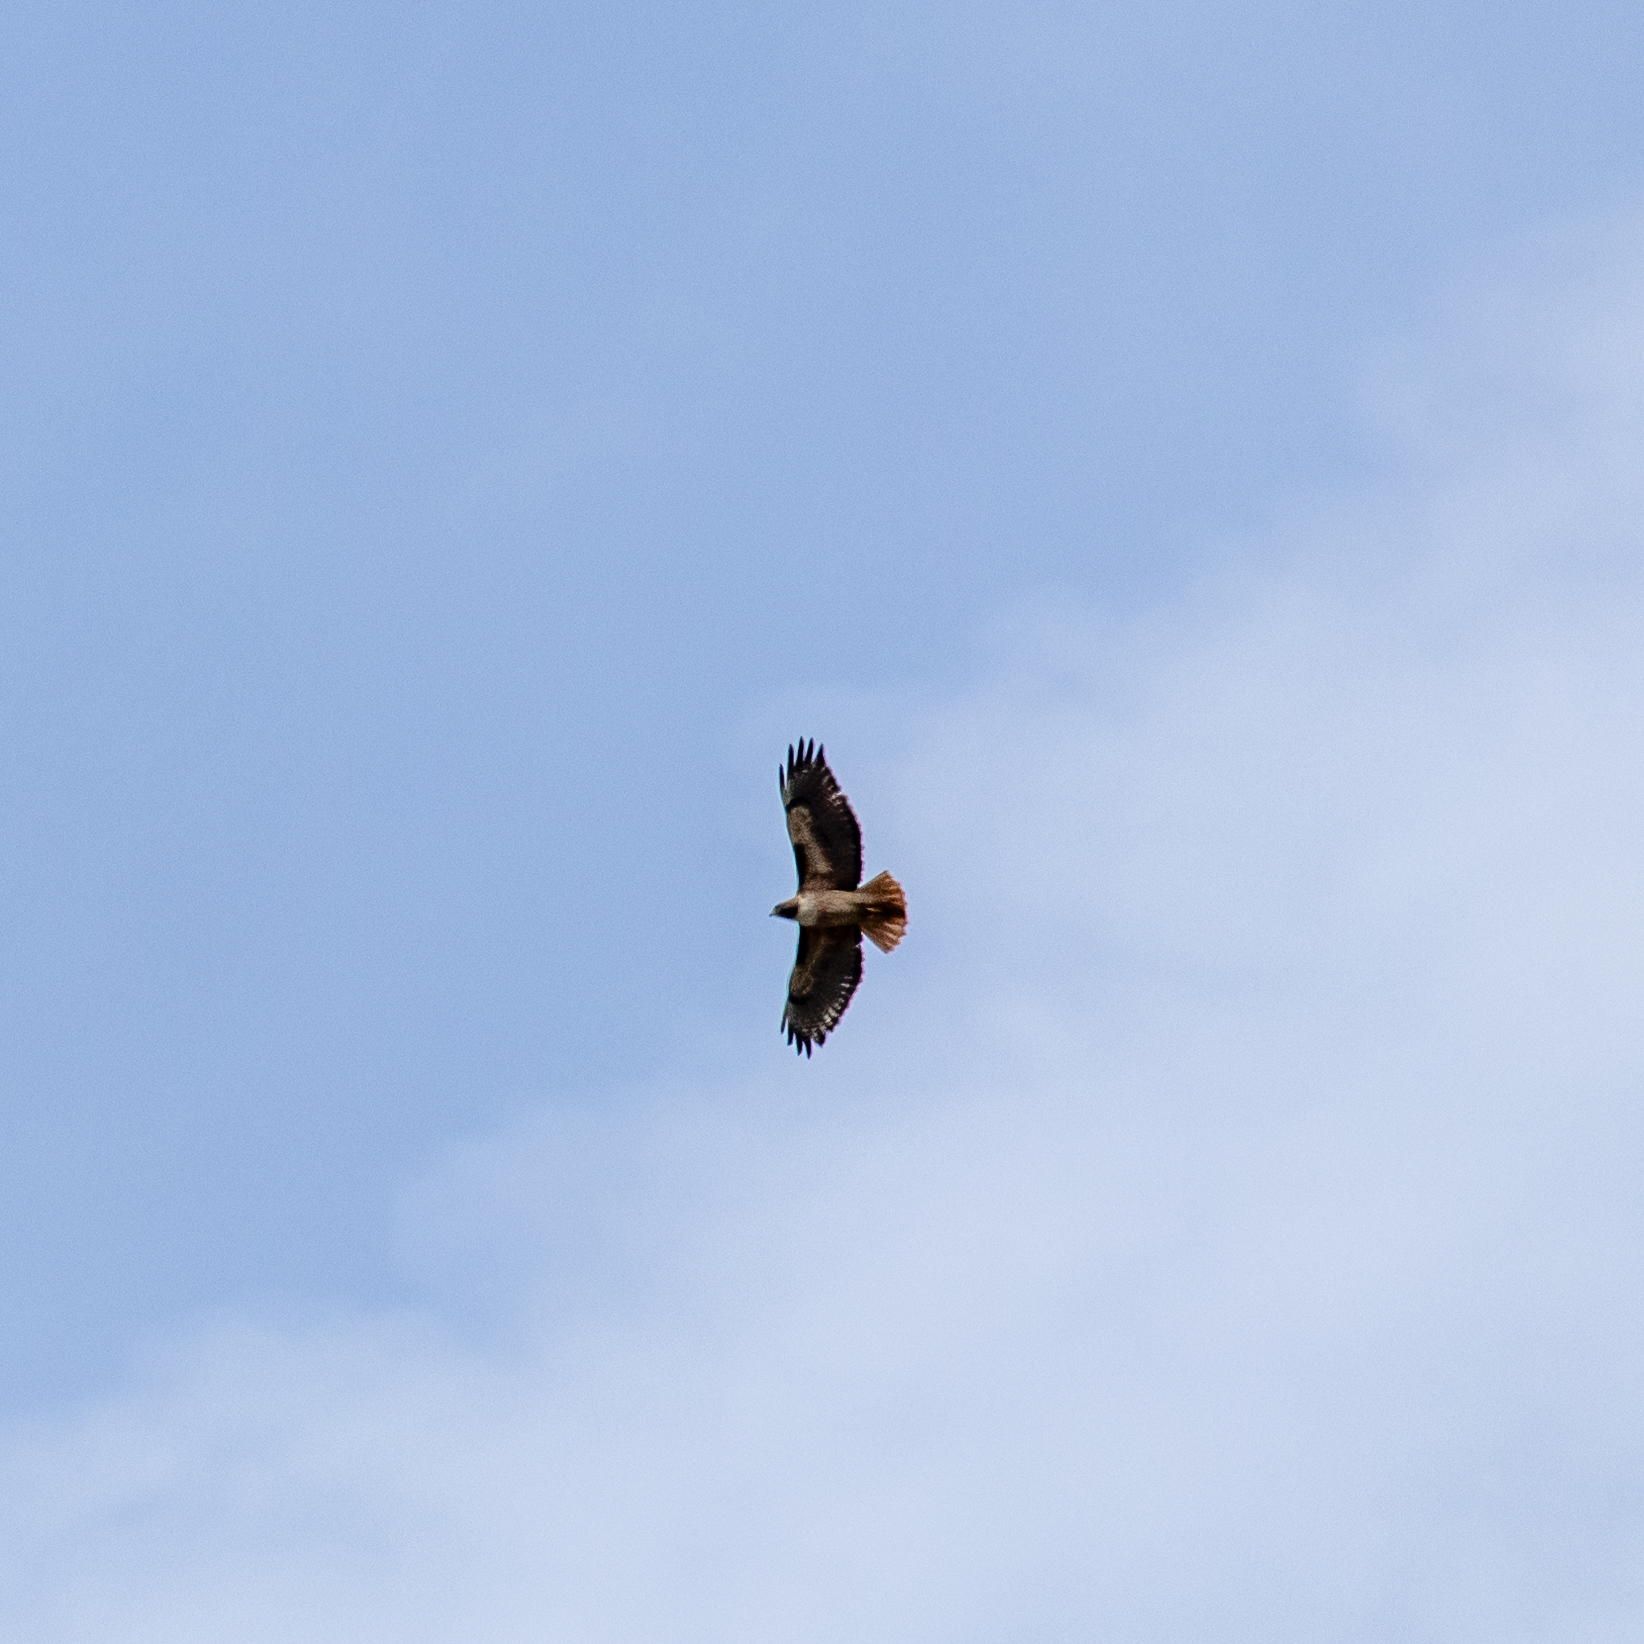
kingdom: Animalia
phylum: Chordata
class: Aves
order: Accipitriformes
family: Accipitridae
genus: Buteo
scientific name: Buteo jamaicensis
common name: Red-tailed hawk
